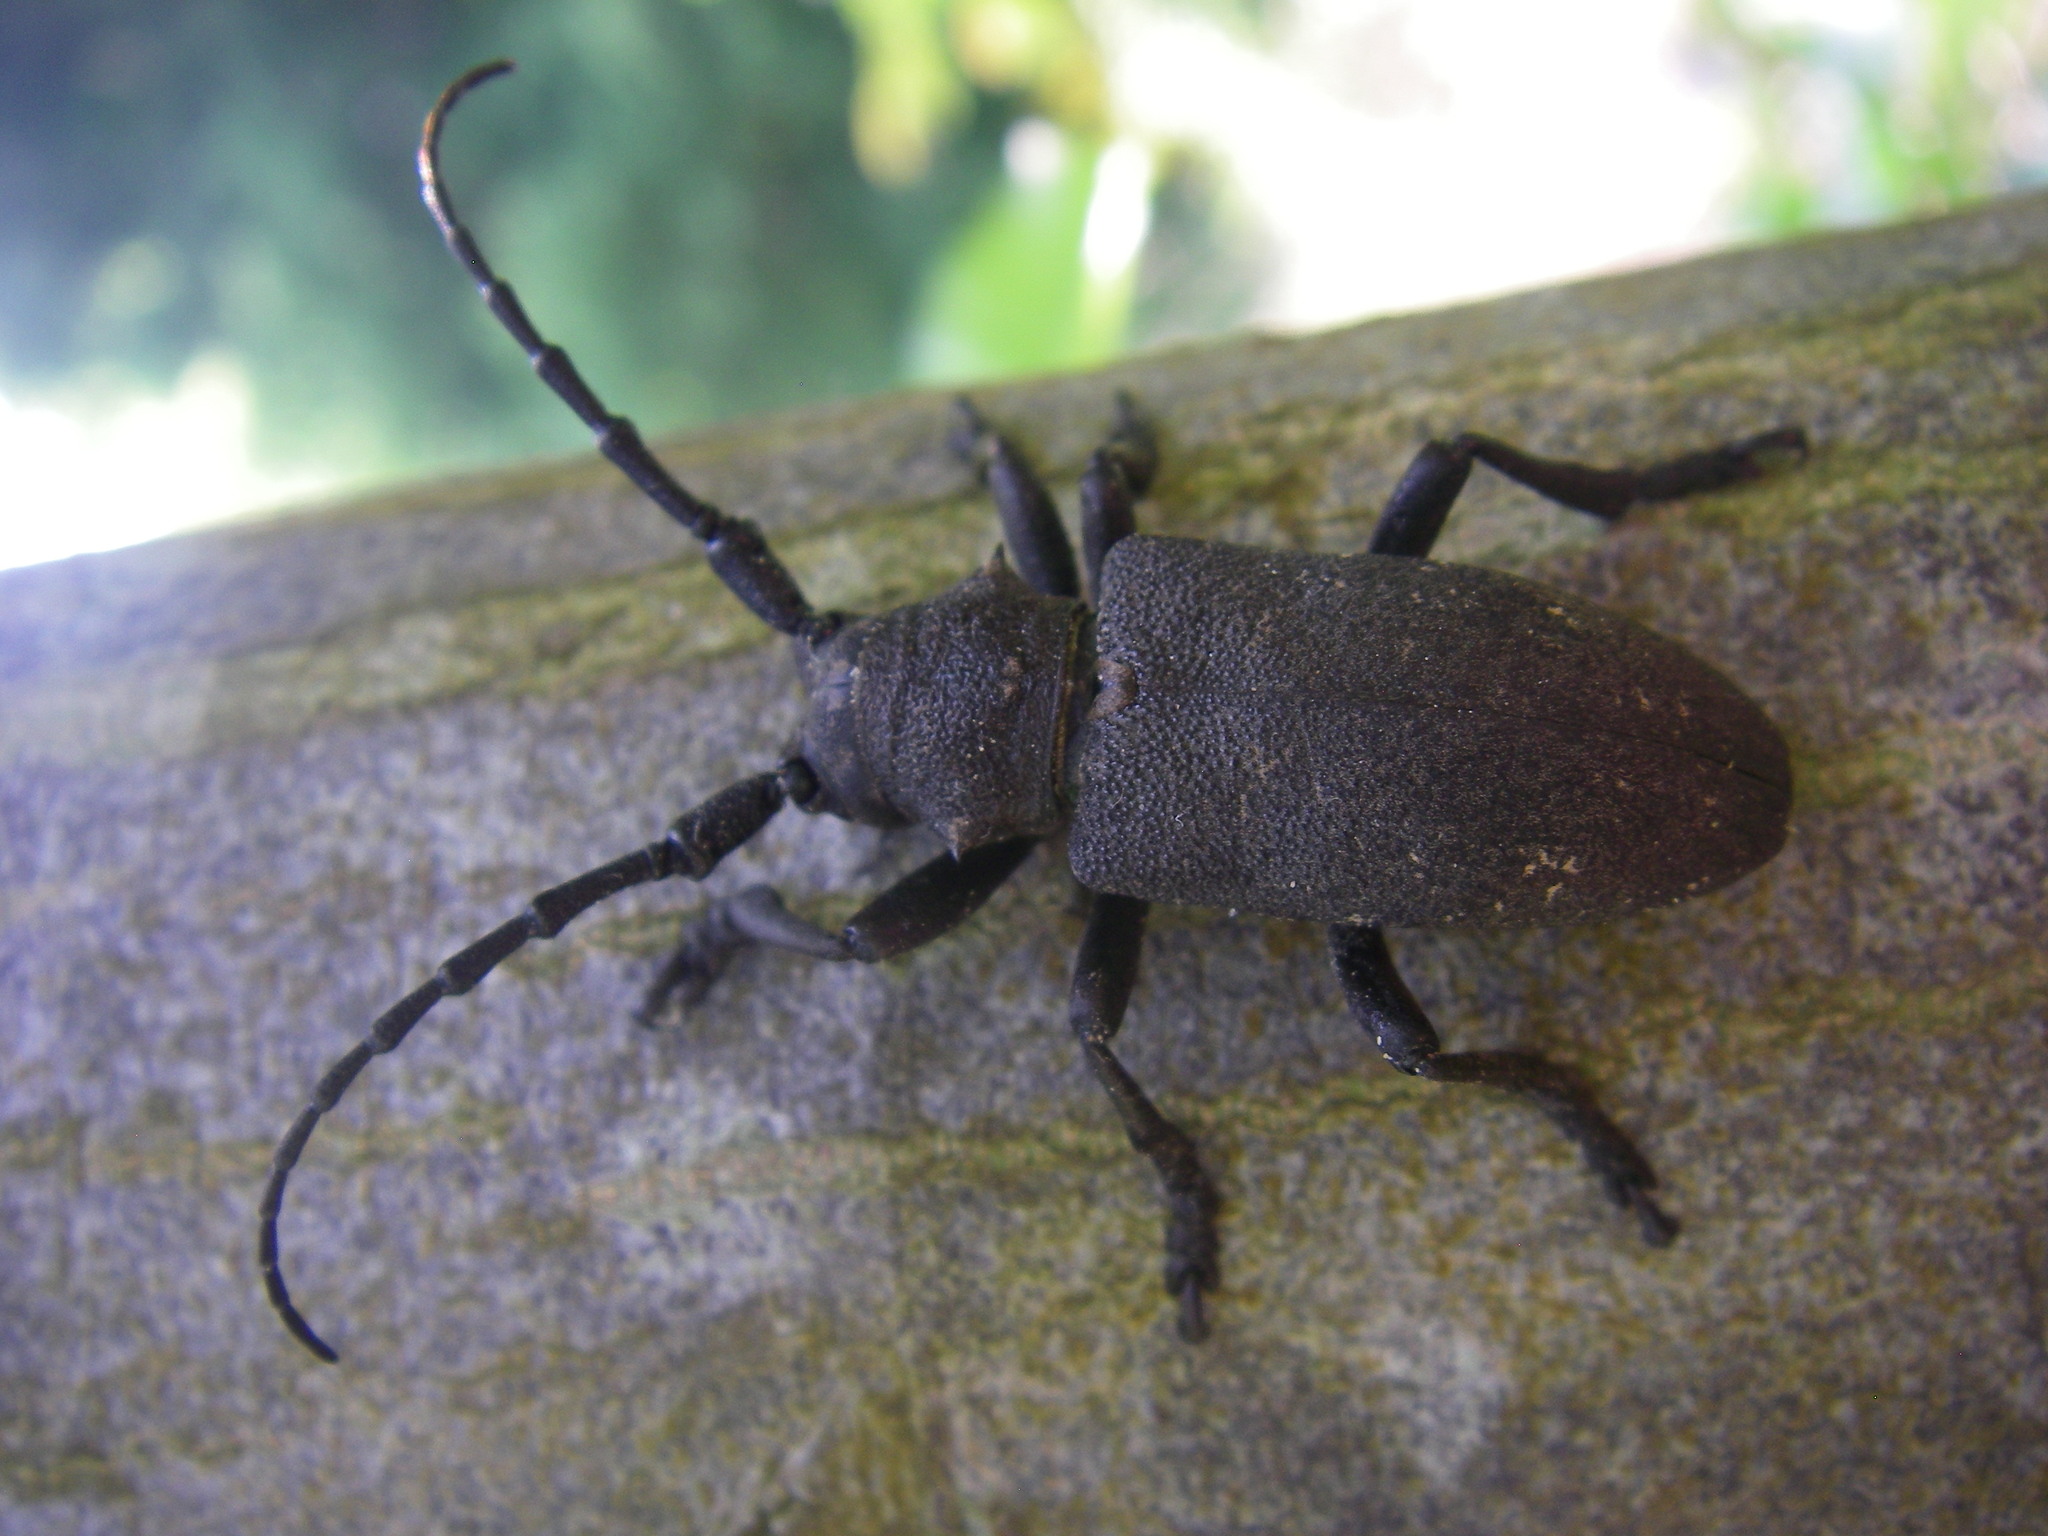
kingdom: Animalia
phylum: Arthropoda
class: Insecta
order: Coleoptera
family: Cerambycidae
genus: Lamia
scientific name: Lamia textor
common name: Weaver beetle
